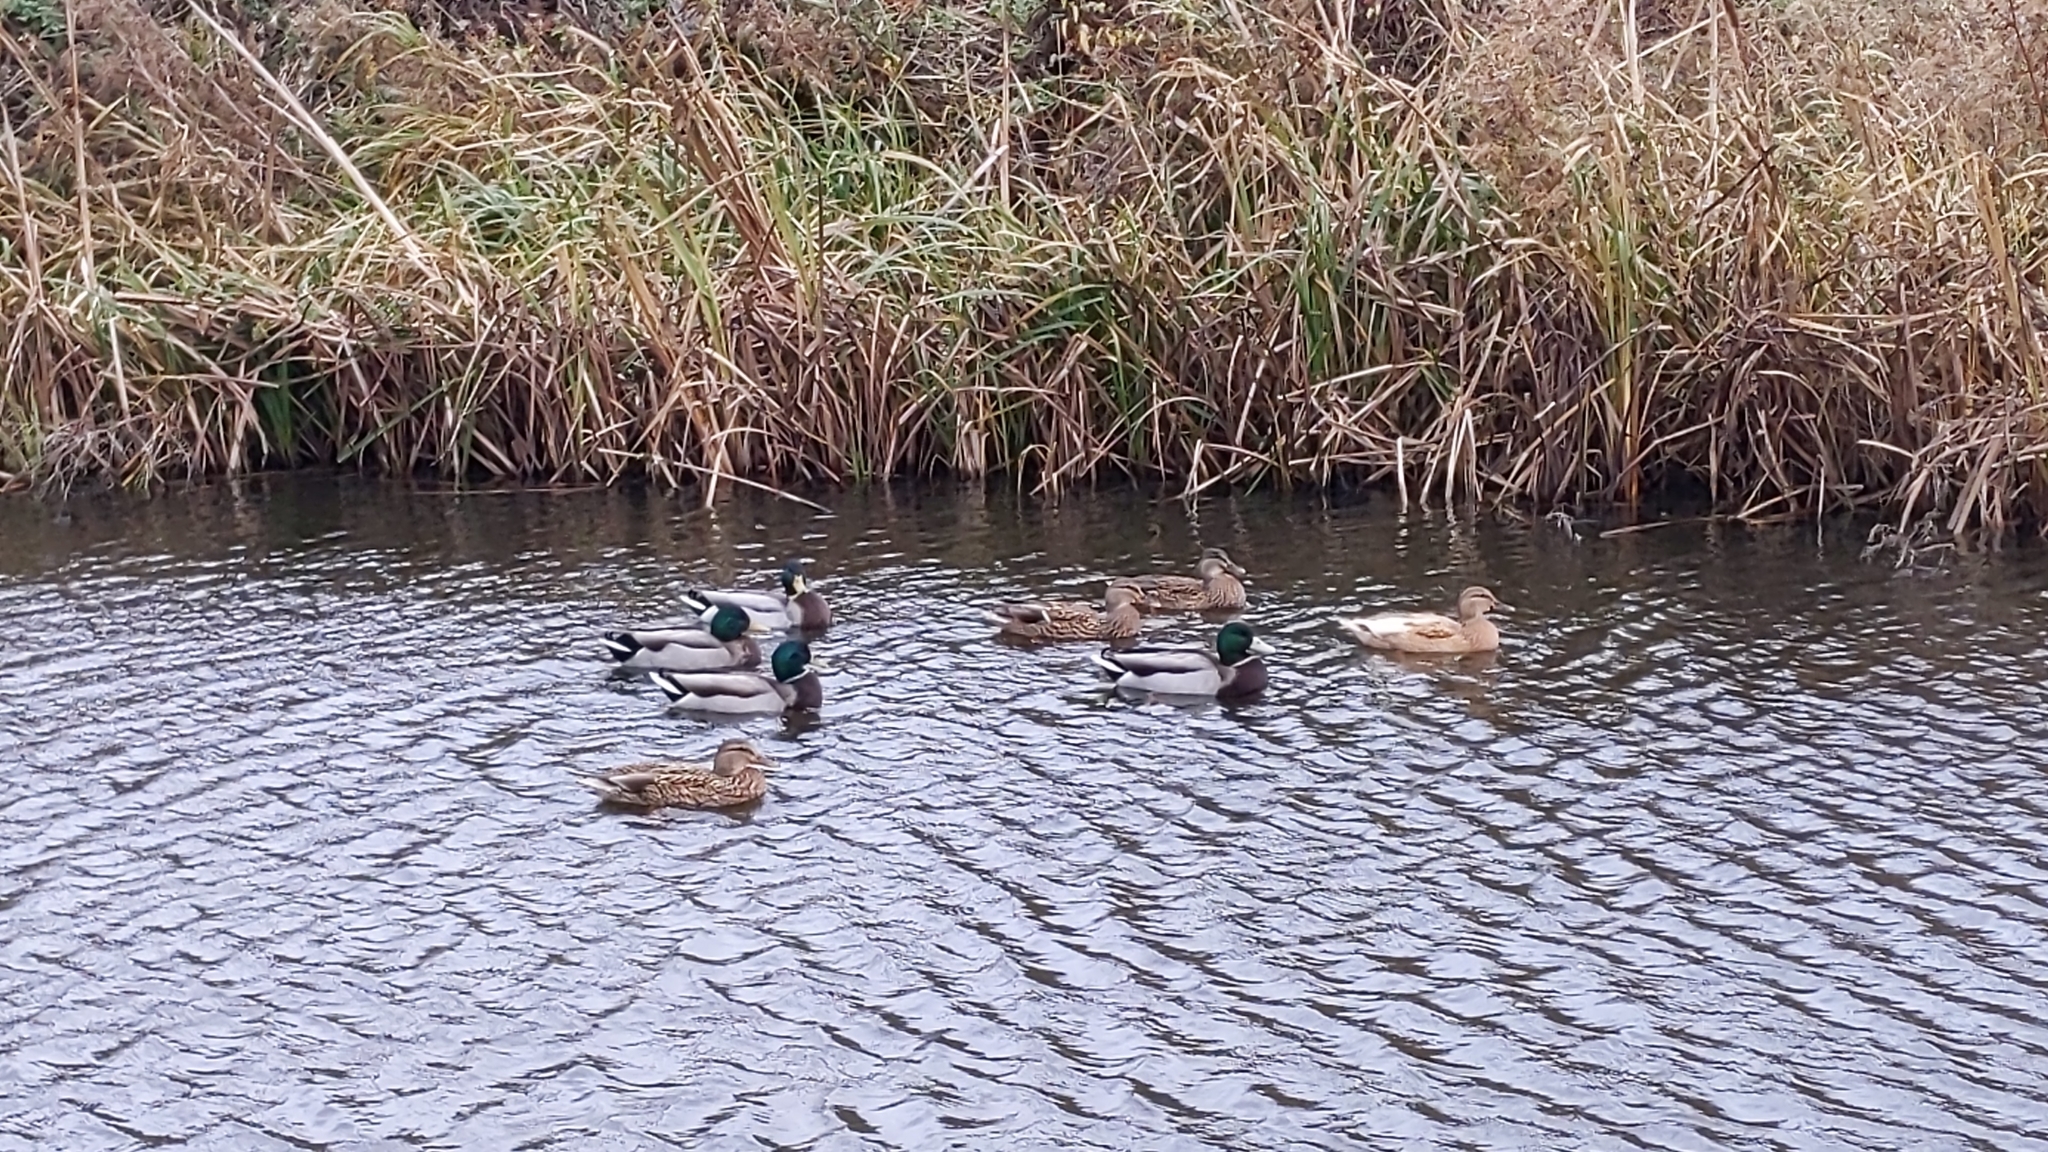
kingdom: Animalia
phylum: Chordata
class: Aves
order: Anseriformes
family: Anatidae
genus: Anas
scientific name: Anas platyrhynchos
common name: Mallard
